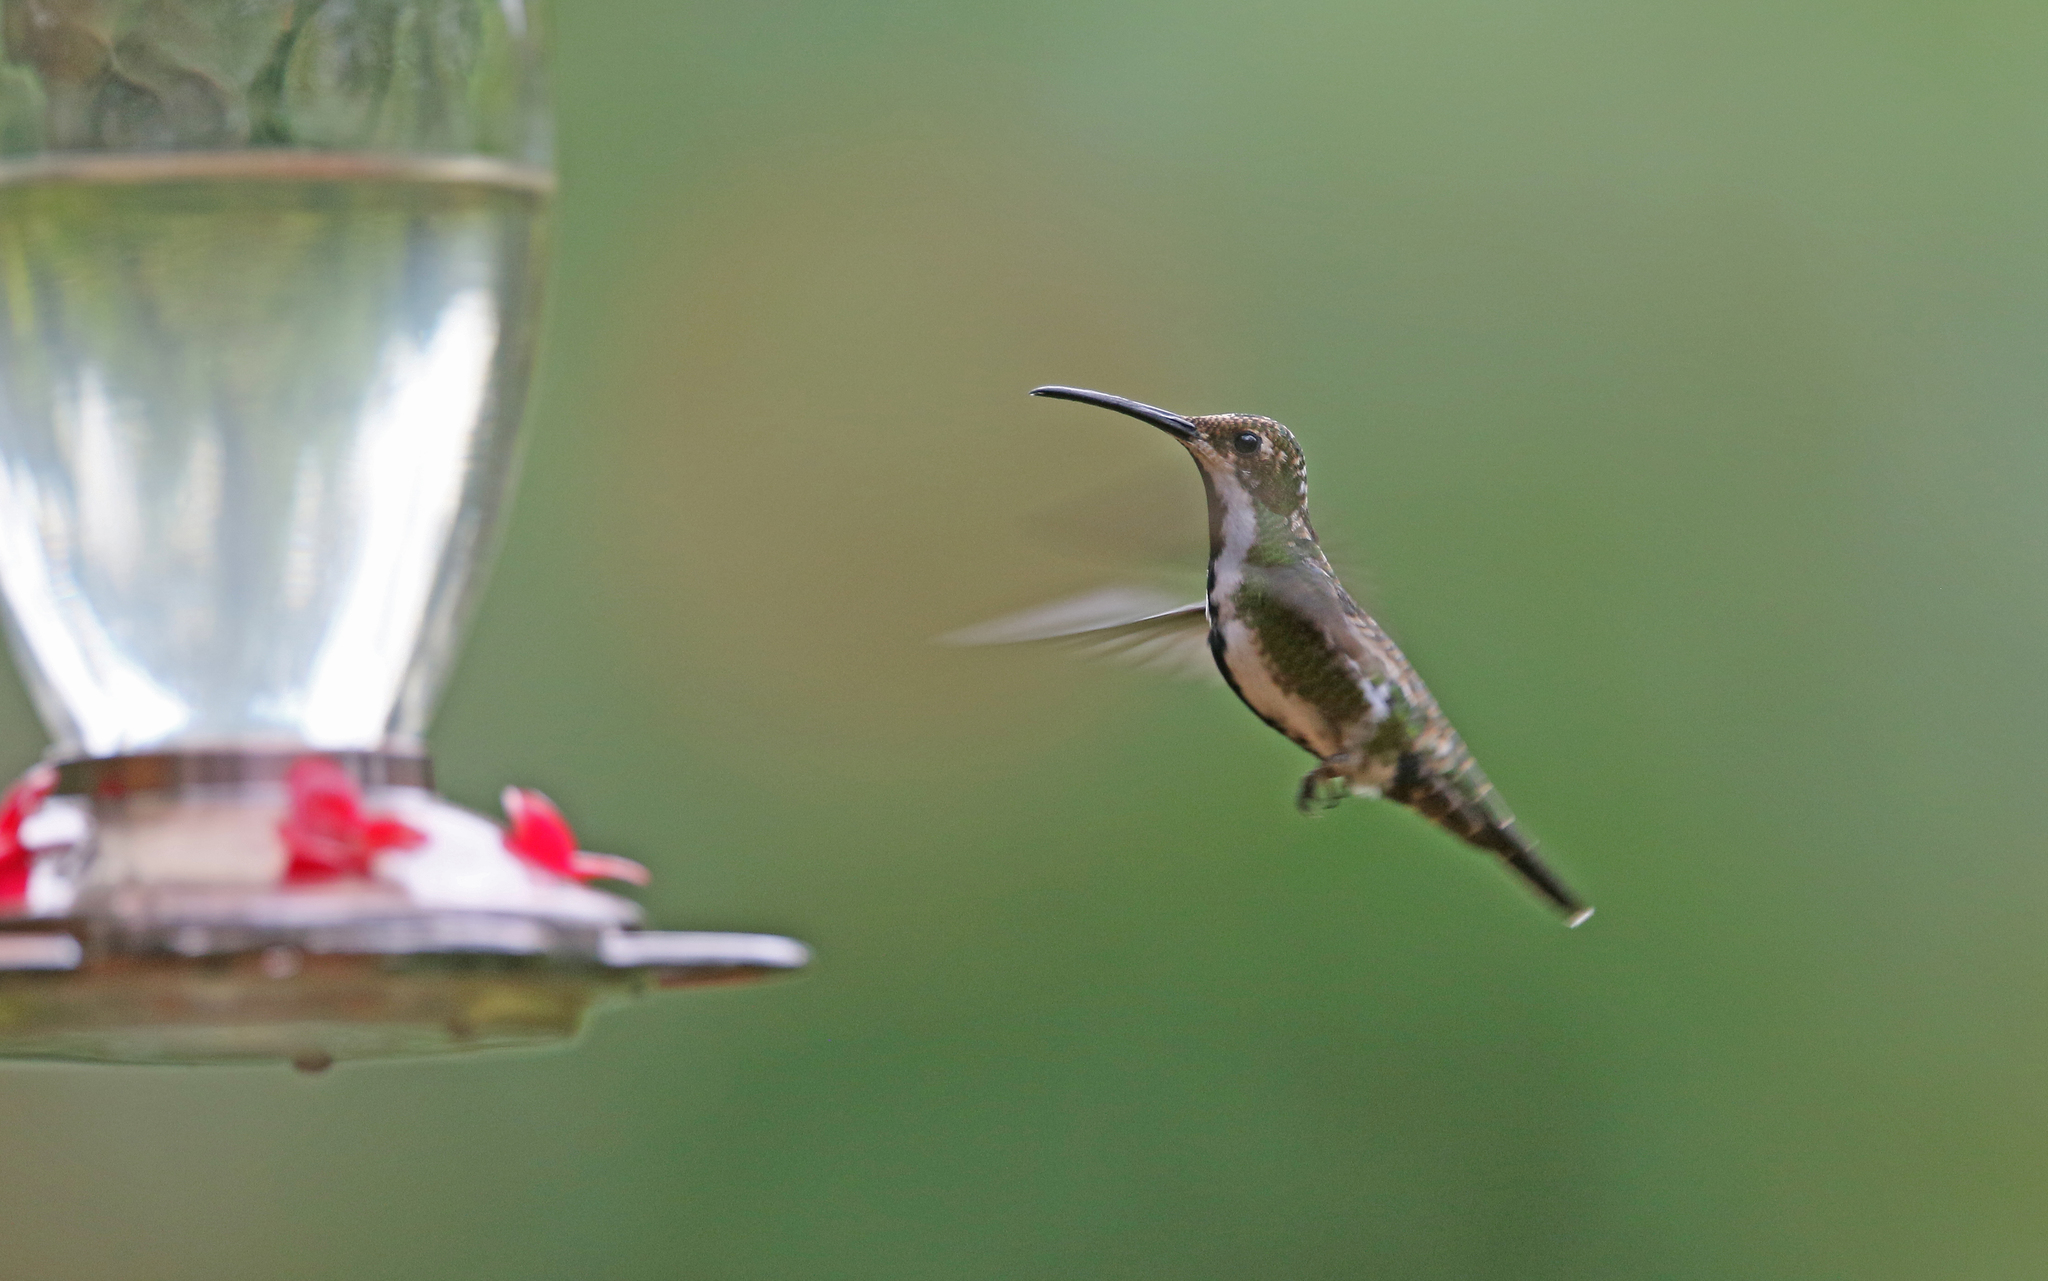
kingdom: Animalia
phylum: Chordata
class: Aves
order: Apodiformes
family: Trochilidae
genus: Anthracothorax
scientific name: Anthracothorax nigricollis
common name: Black-throated mango
